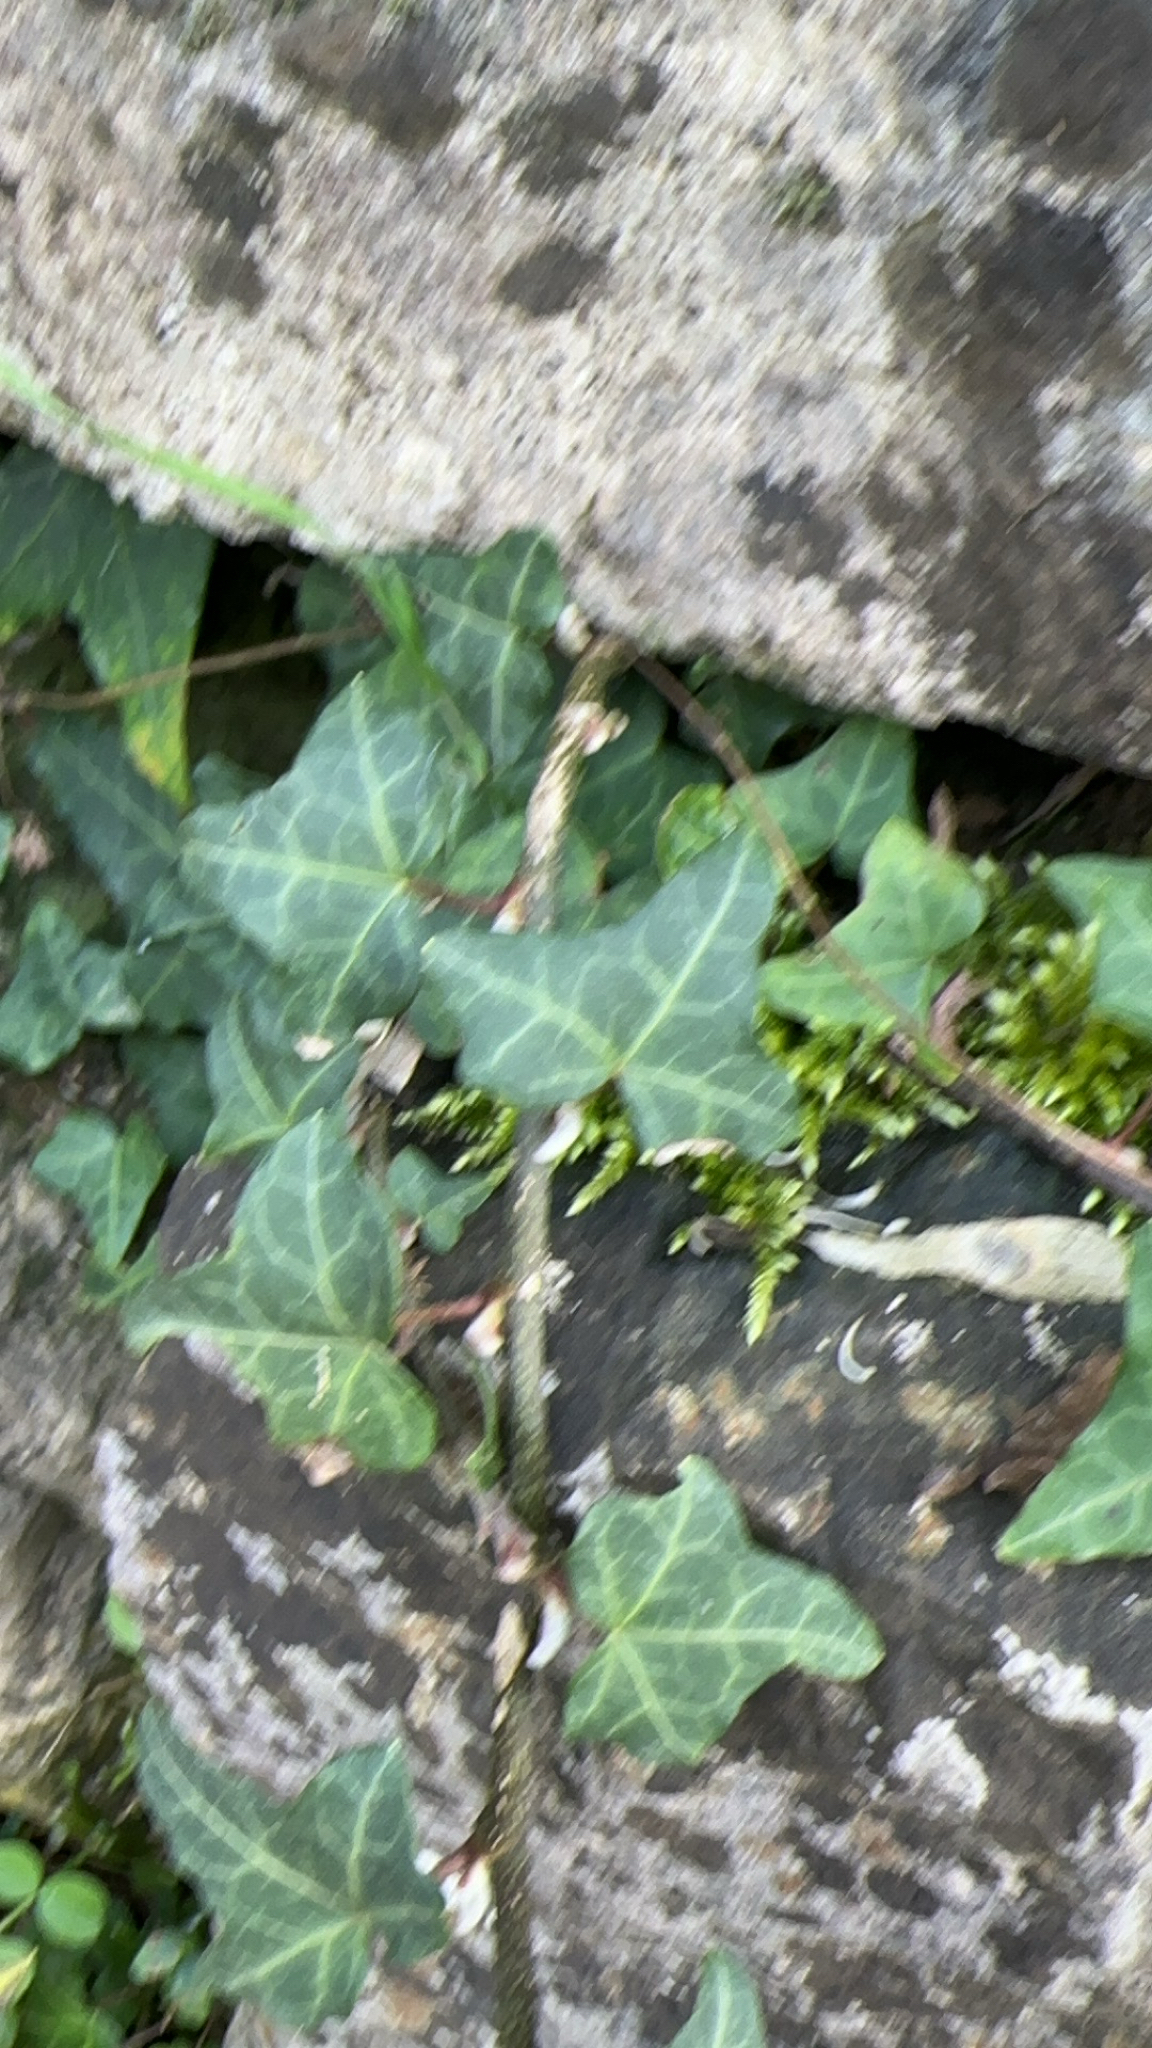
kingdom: Plantae
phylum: Tracheophyta
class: Magnoliopsida
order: Apiales
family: Araliaceae
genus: Hedera
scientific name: Hedera helix
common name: Ivy
